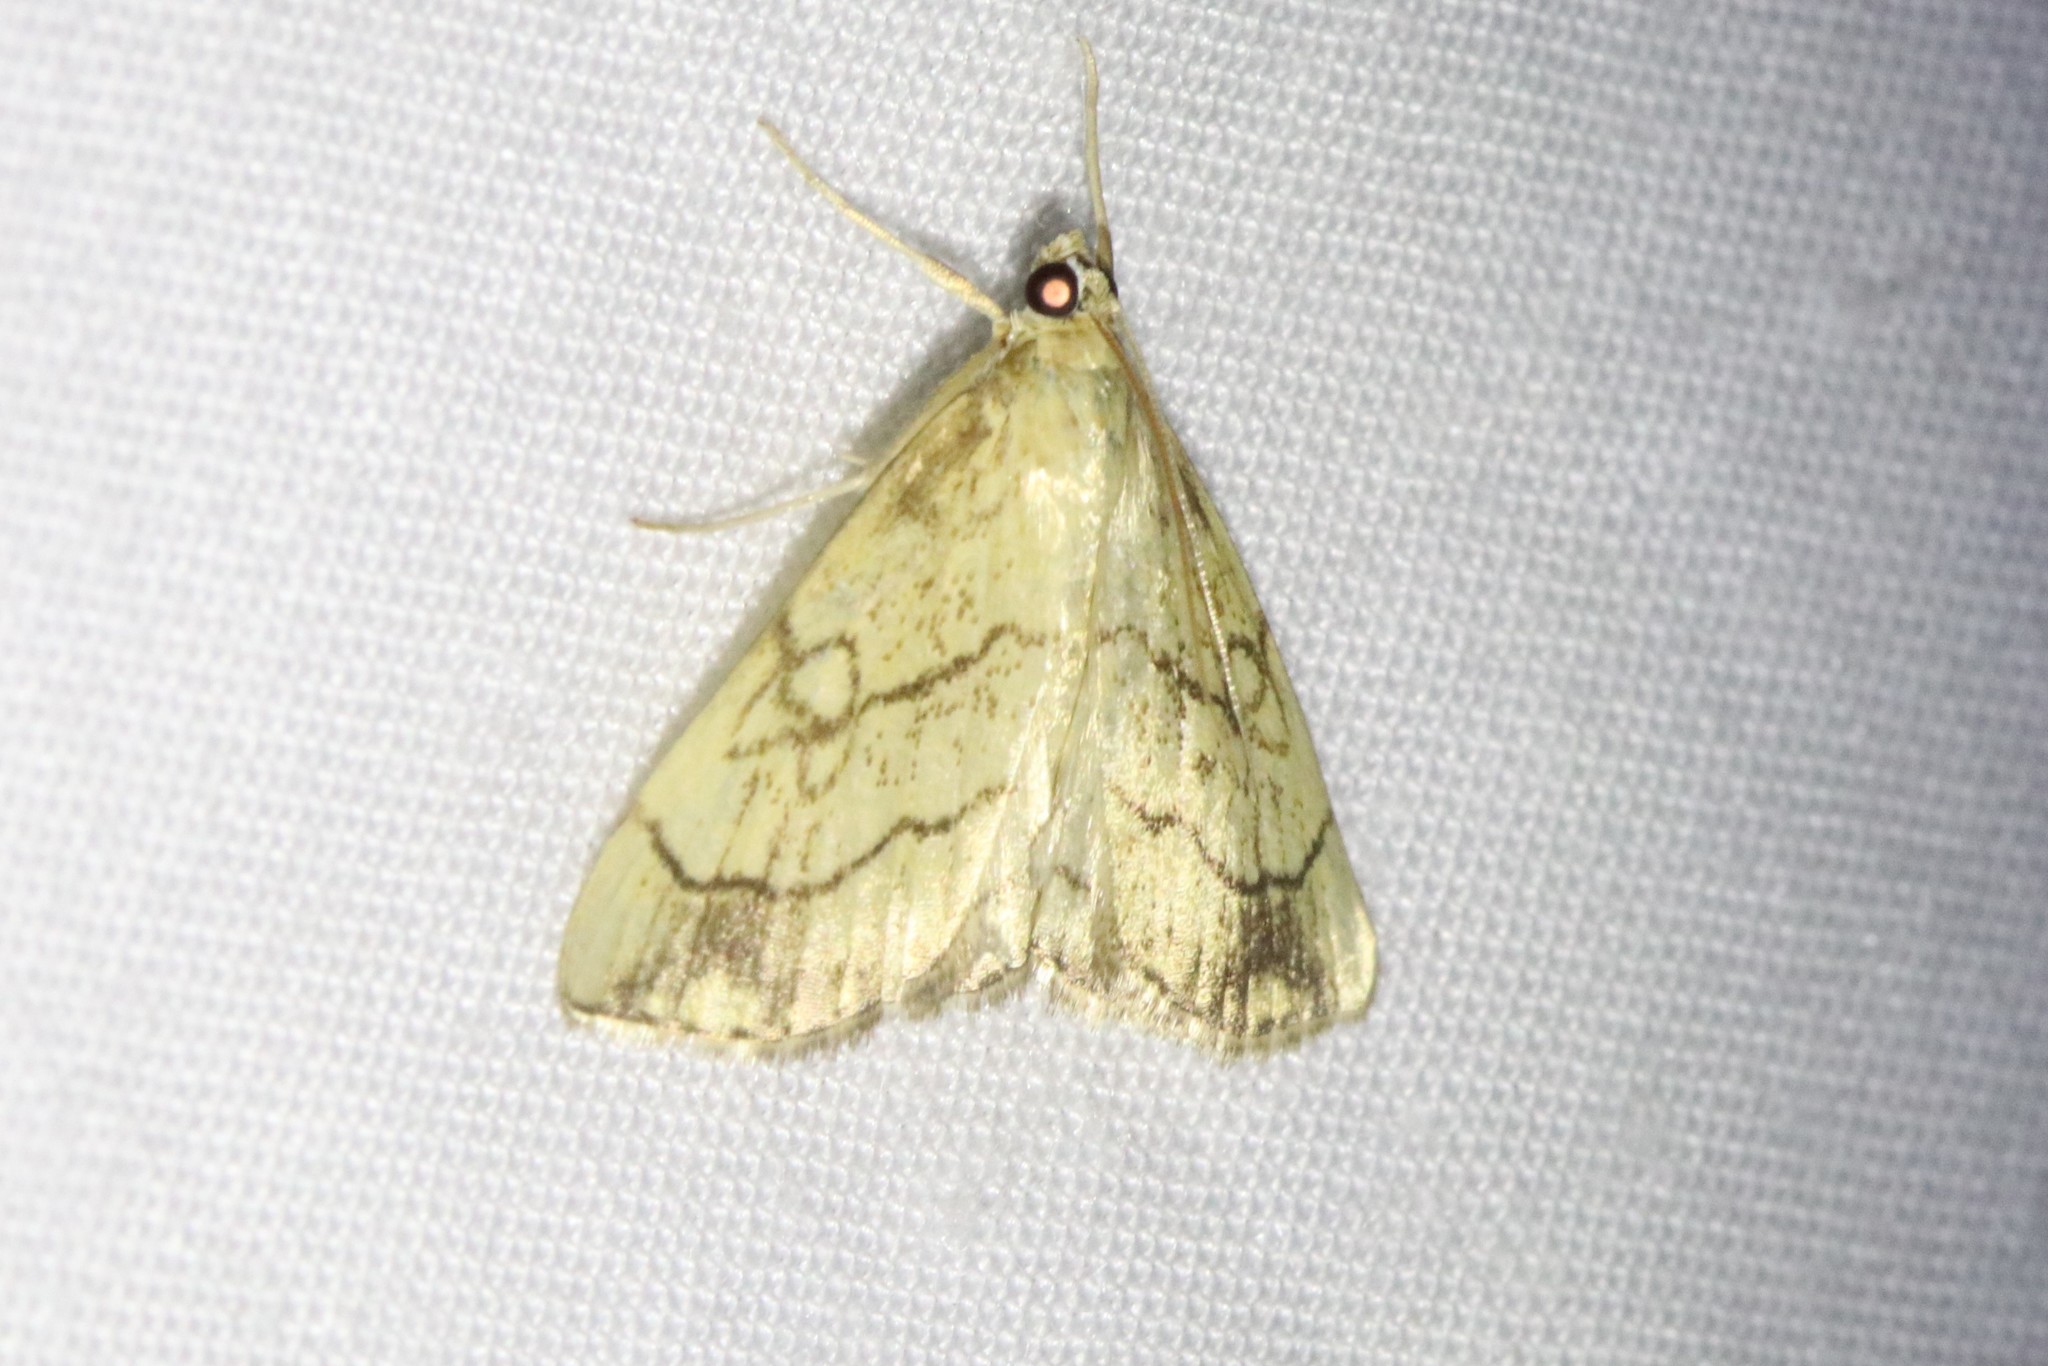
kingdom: Animalia
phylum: Arthropoda
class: Insecta
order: Lepidoptera
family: Crambidae
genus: Evergestis
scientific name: Evergestis pallidata
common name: Chequered pearl
